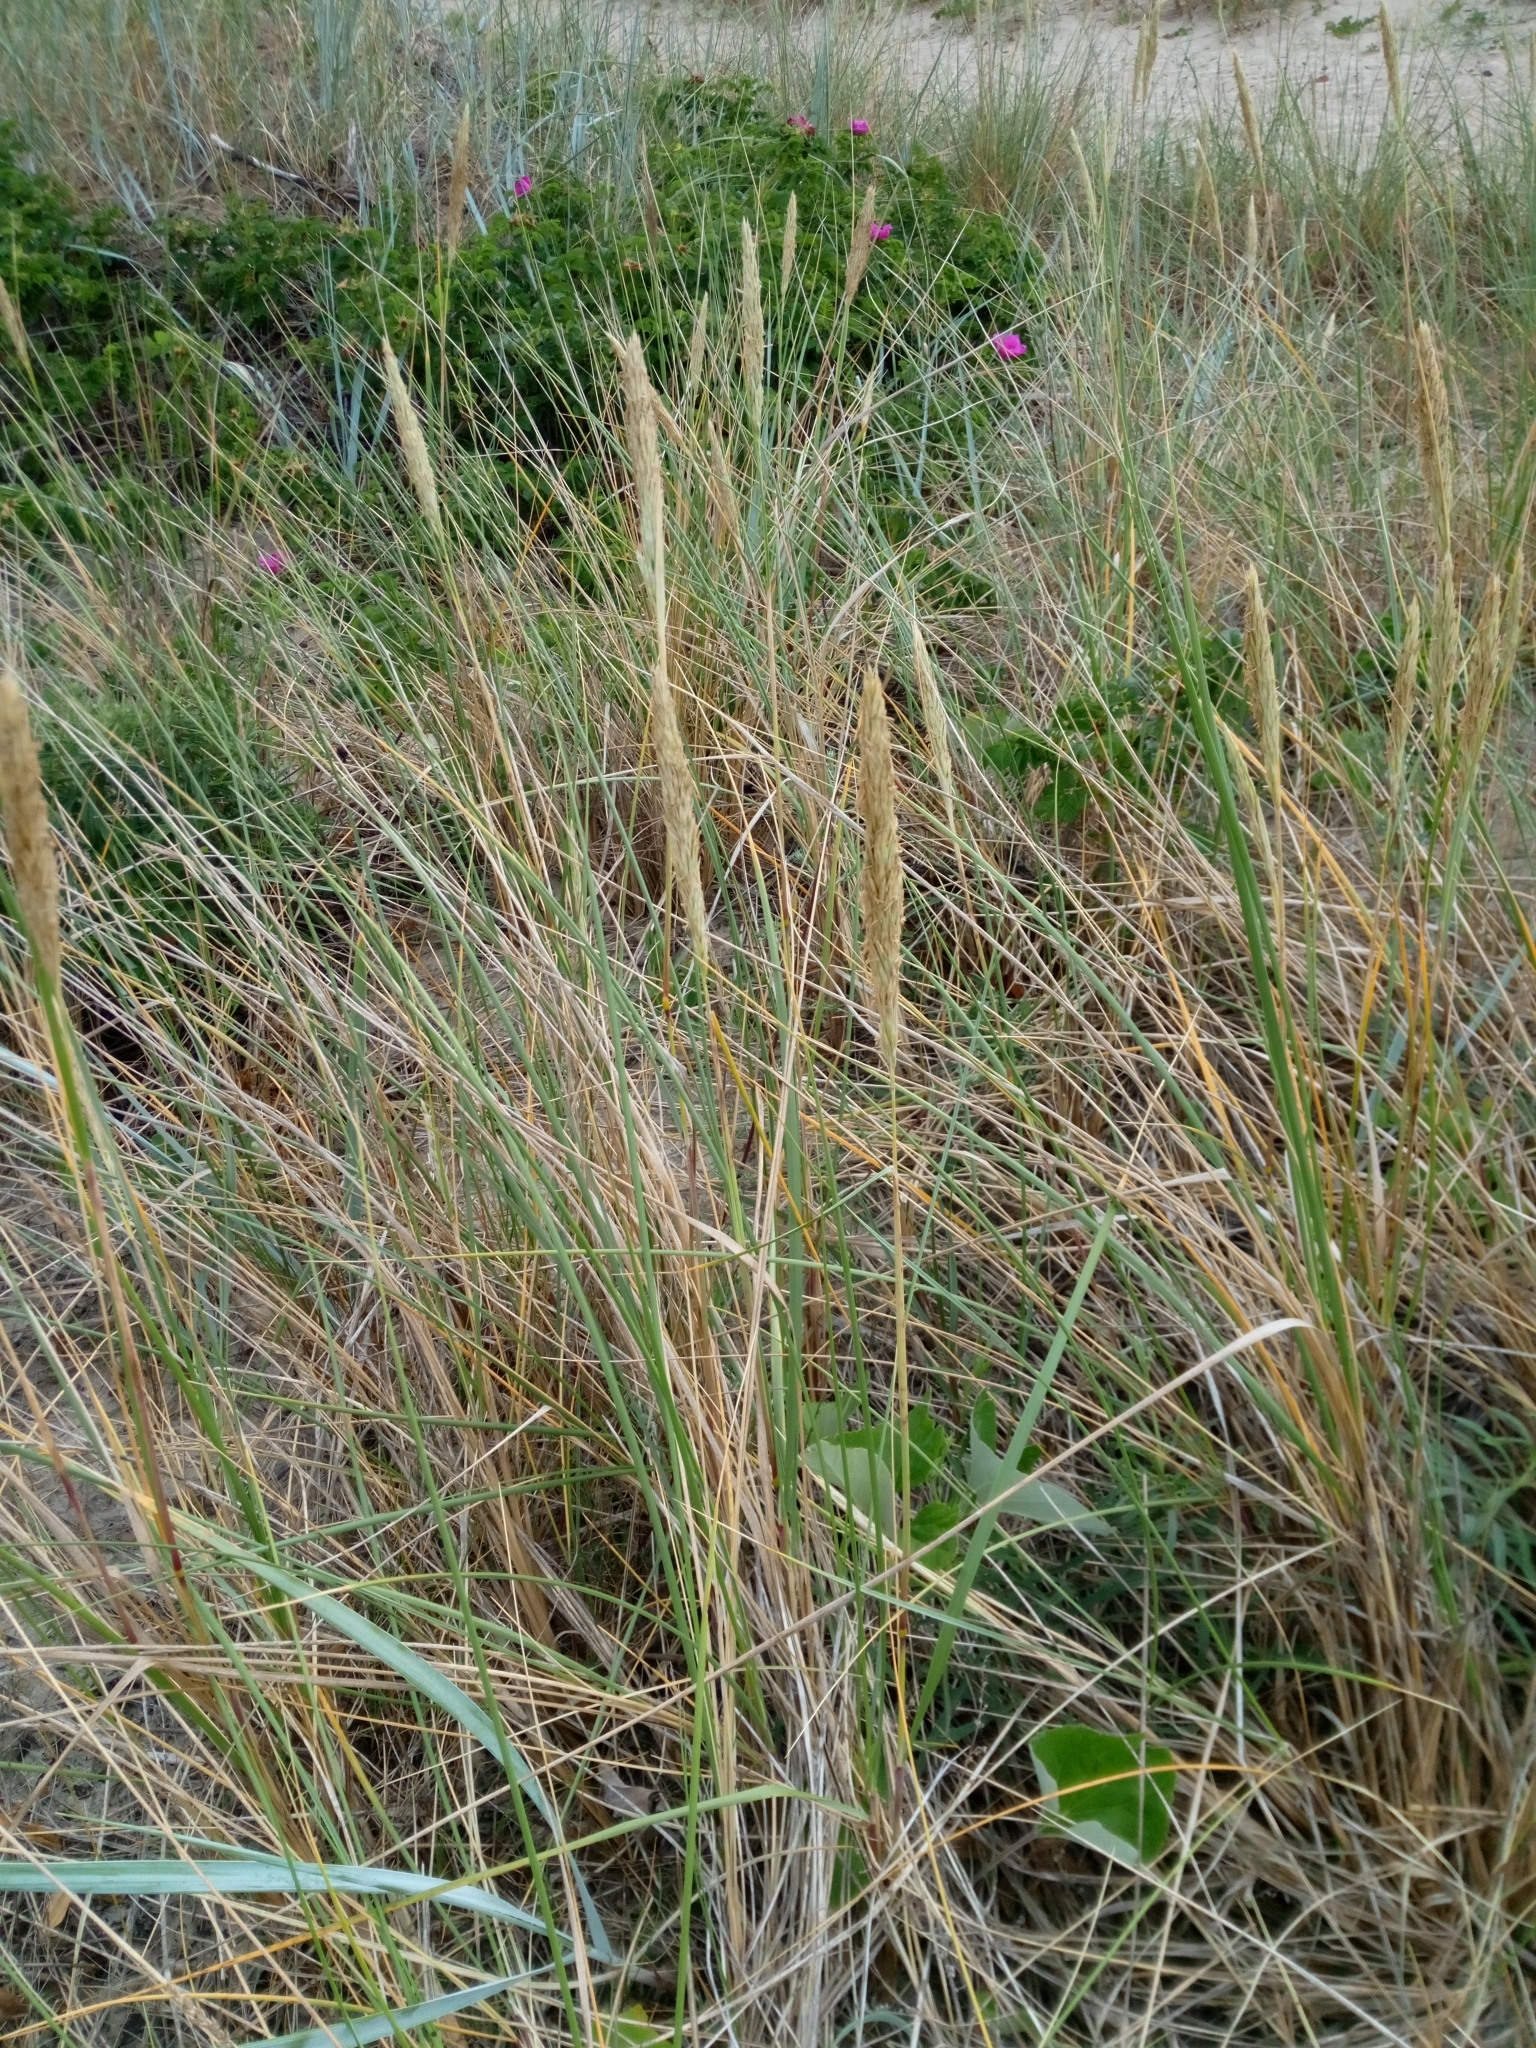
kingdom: Plantae
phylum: Tracheophyta
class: Liliopsida
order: Poales
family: Poaceae
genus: Calamagrostis
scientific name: Calamagrostis arenaria
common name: European beachgrass
